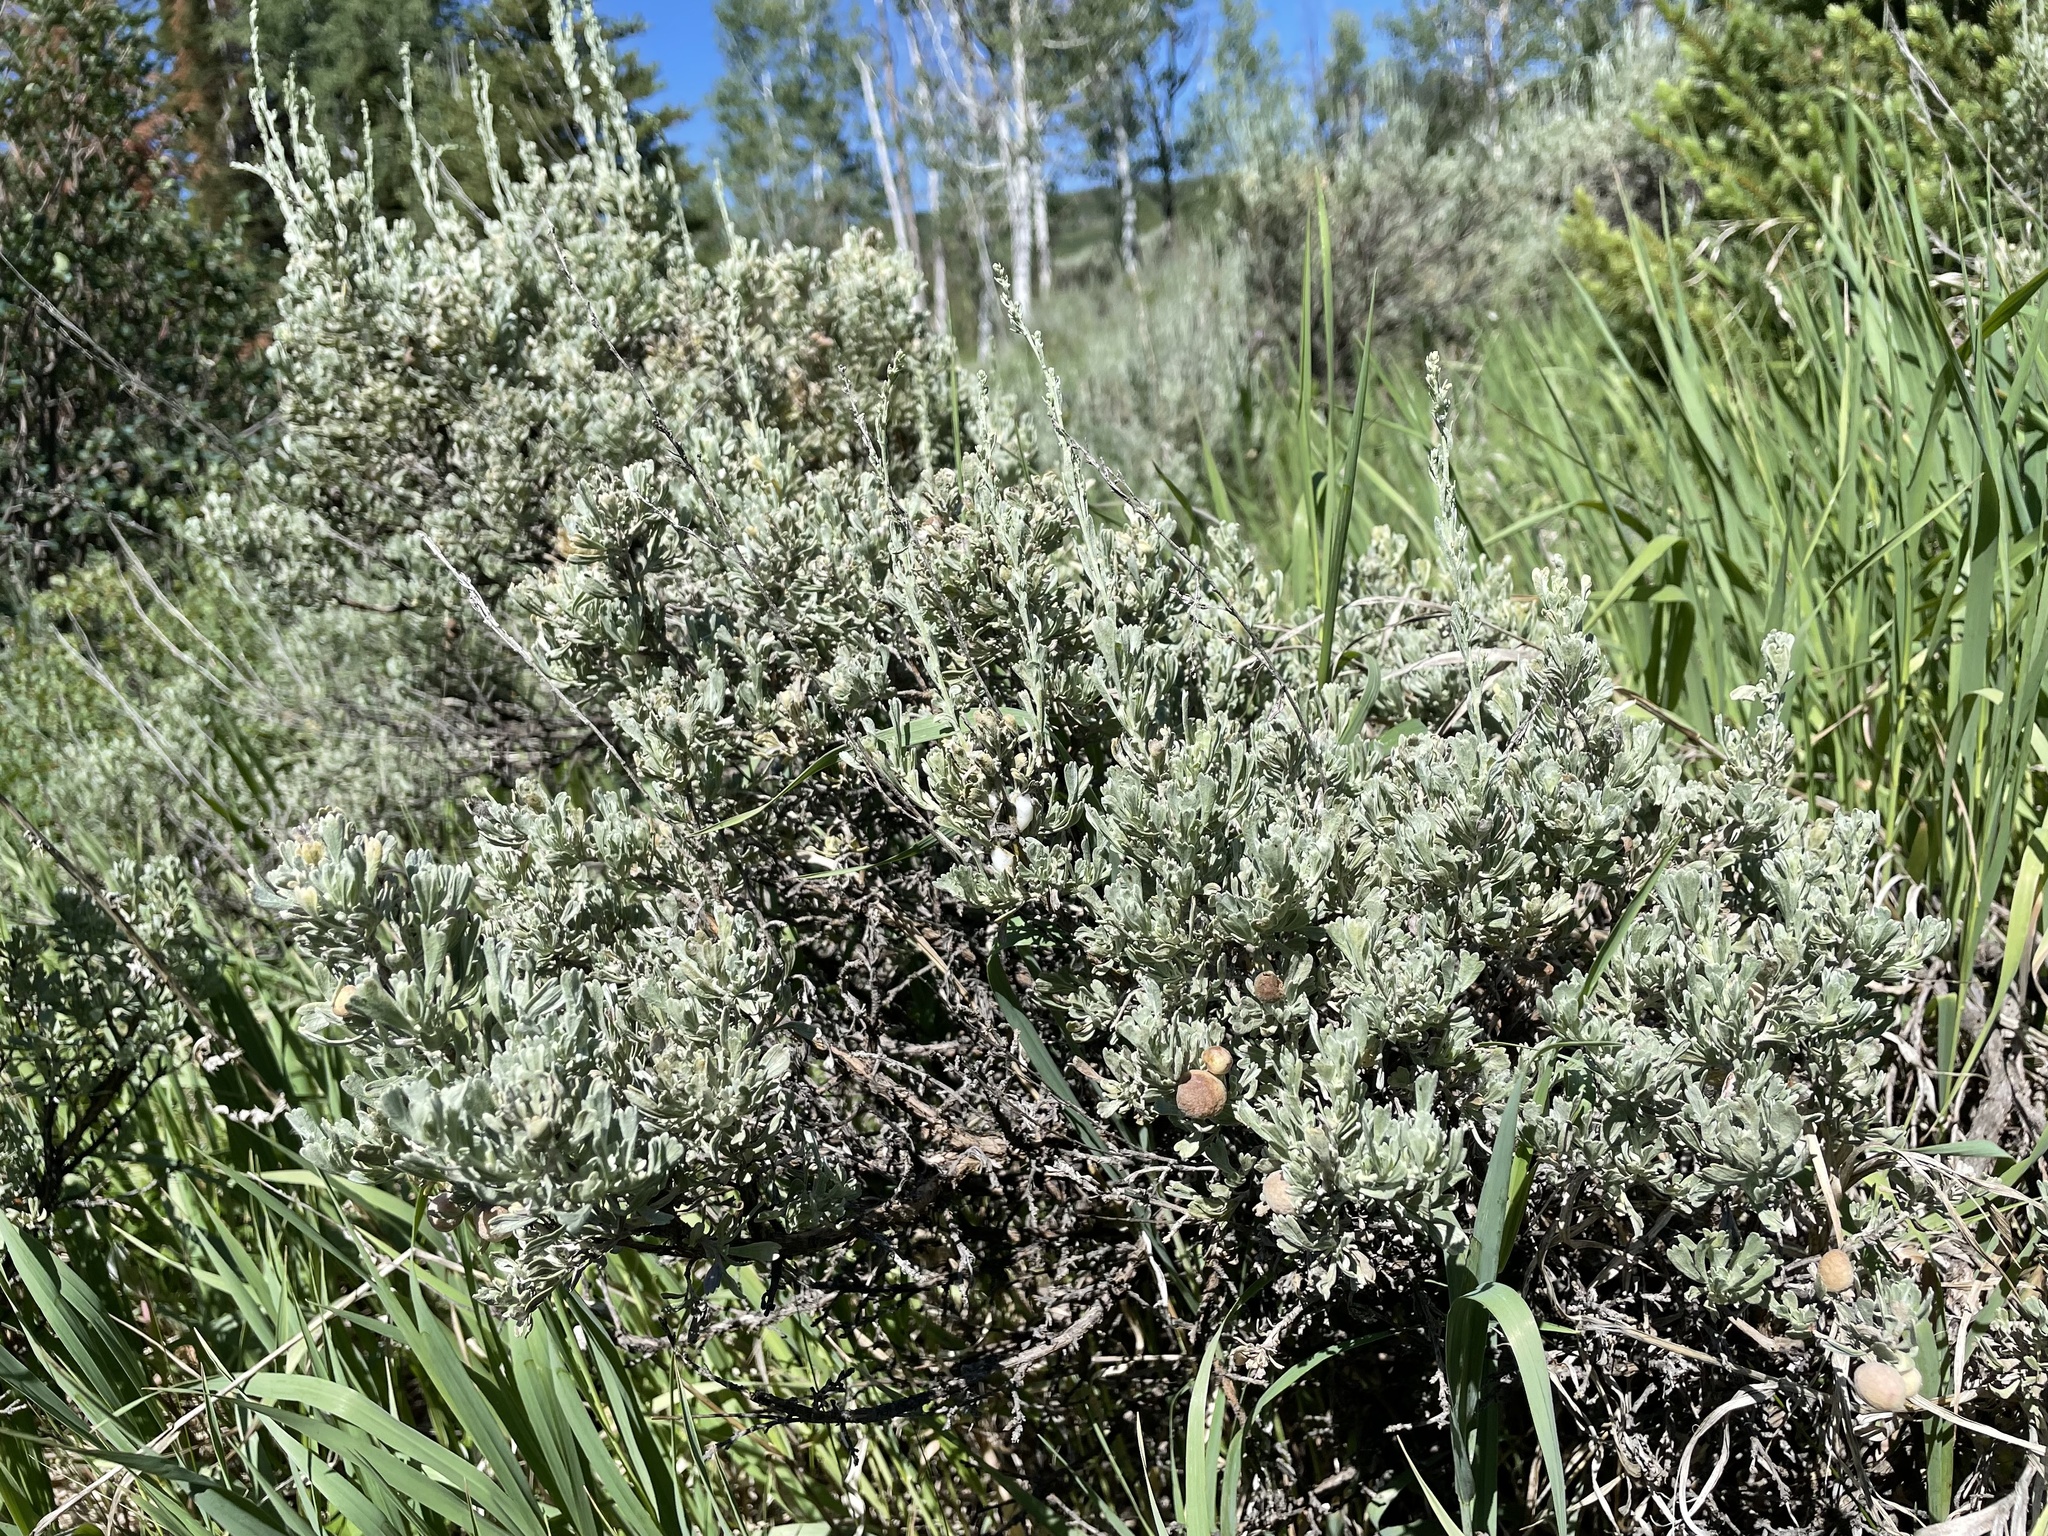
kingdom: Animalia
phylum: Arthropoda
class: Insecta
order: Diptera
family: Cecidomyiidae
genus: Rhopalomyia
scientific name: Rhopalomyia pomum
